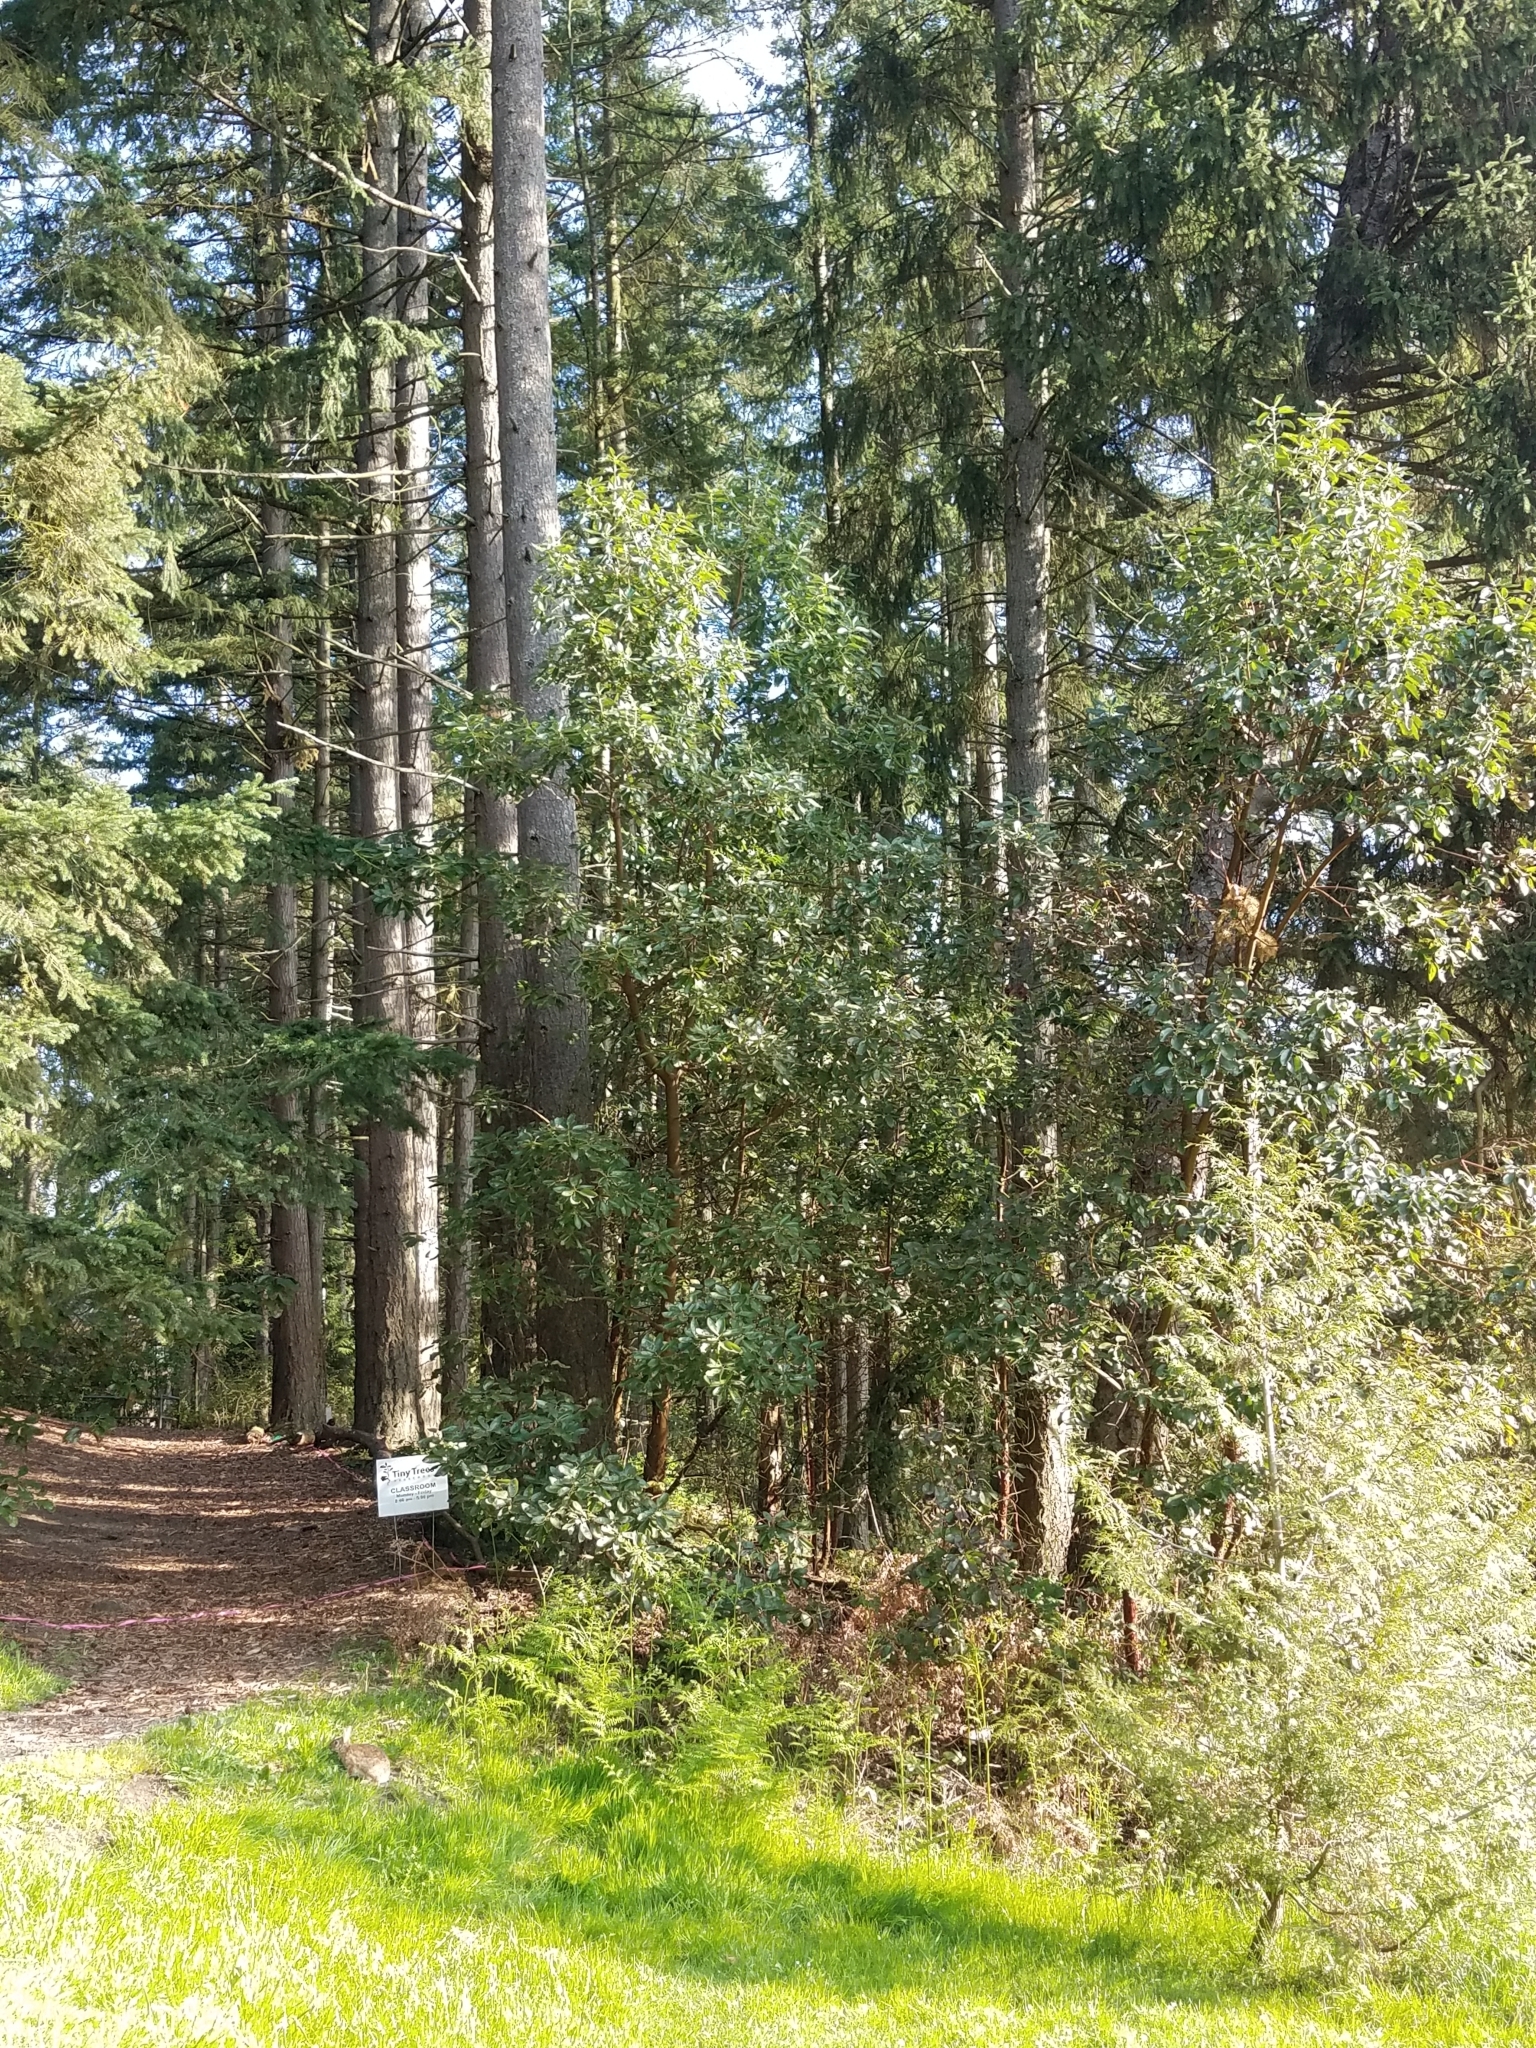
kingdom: Animalia
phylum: Chordata
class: Mammalia
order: Lagomorpha
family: Leporidae
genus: Sylvilagus
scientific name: Sylvilagus floridanus
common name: Eastern cottontail
